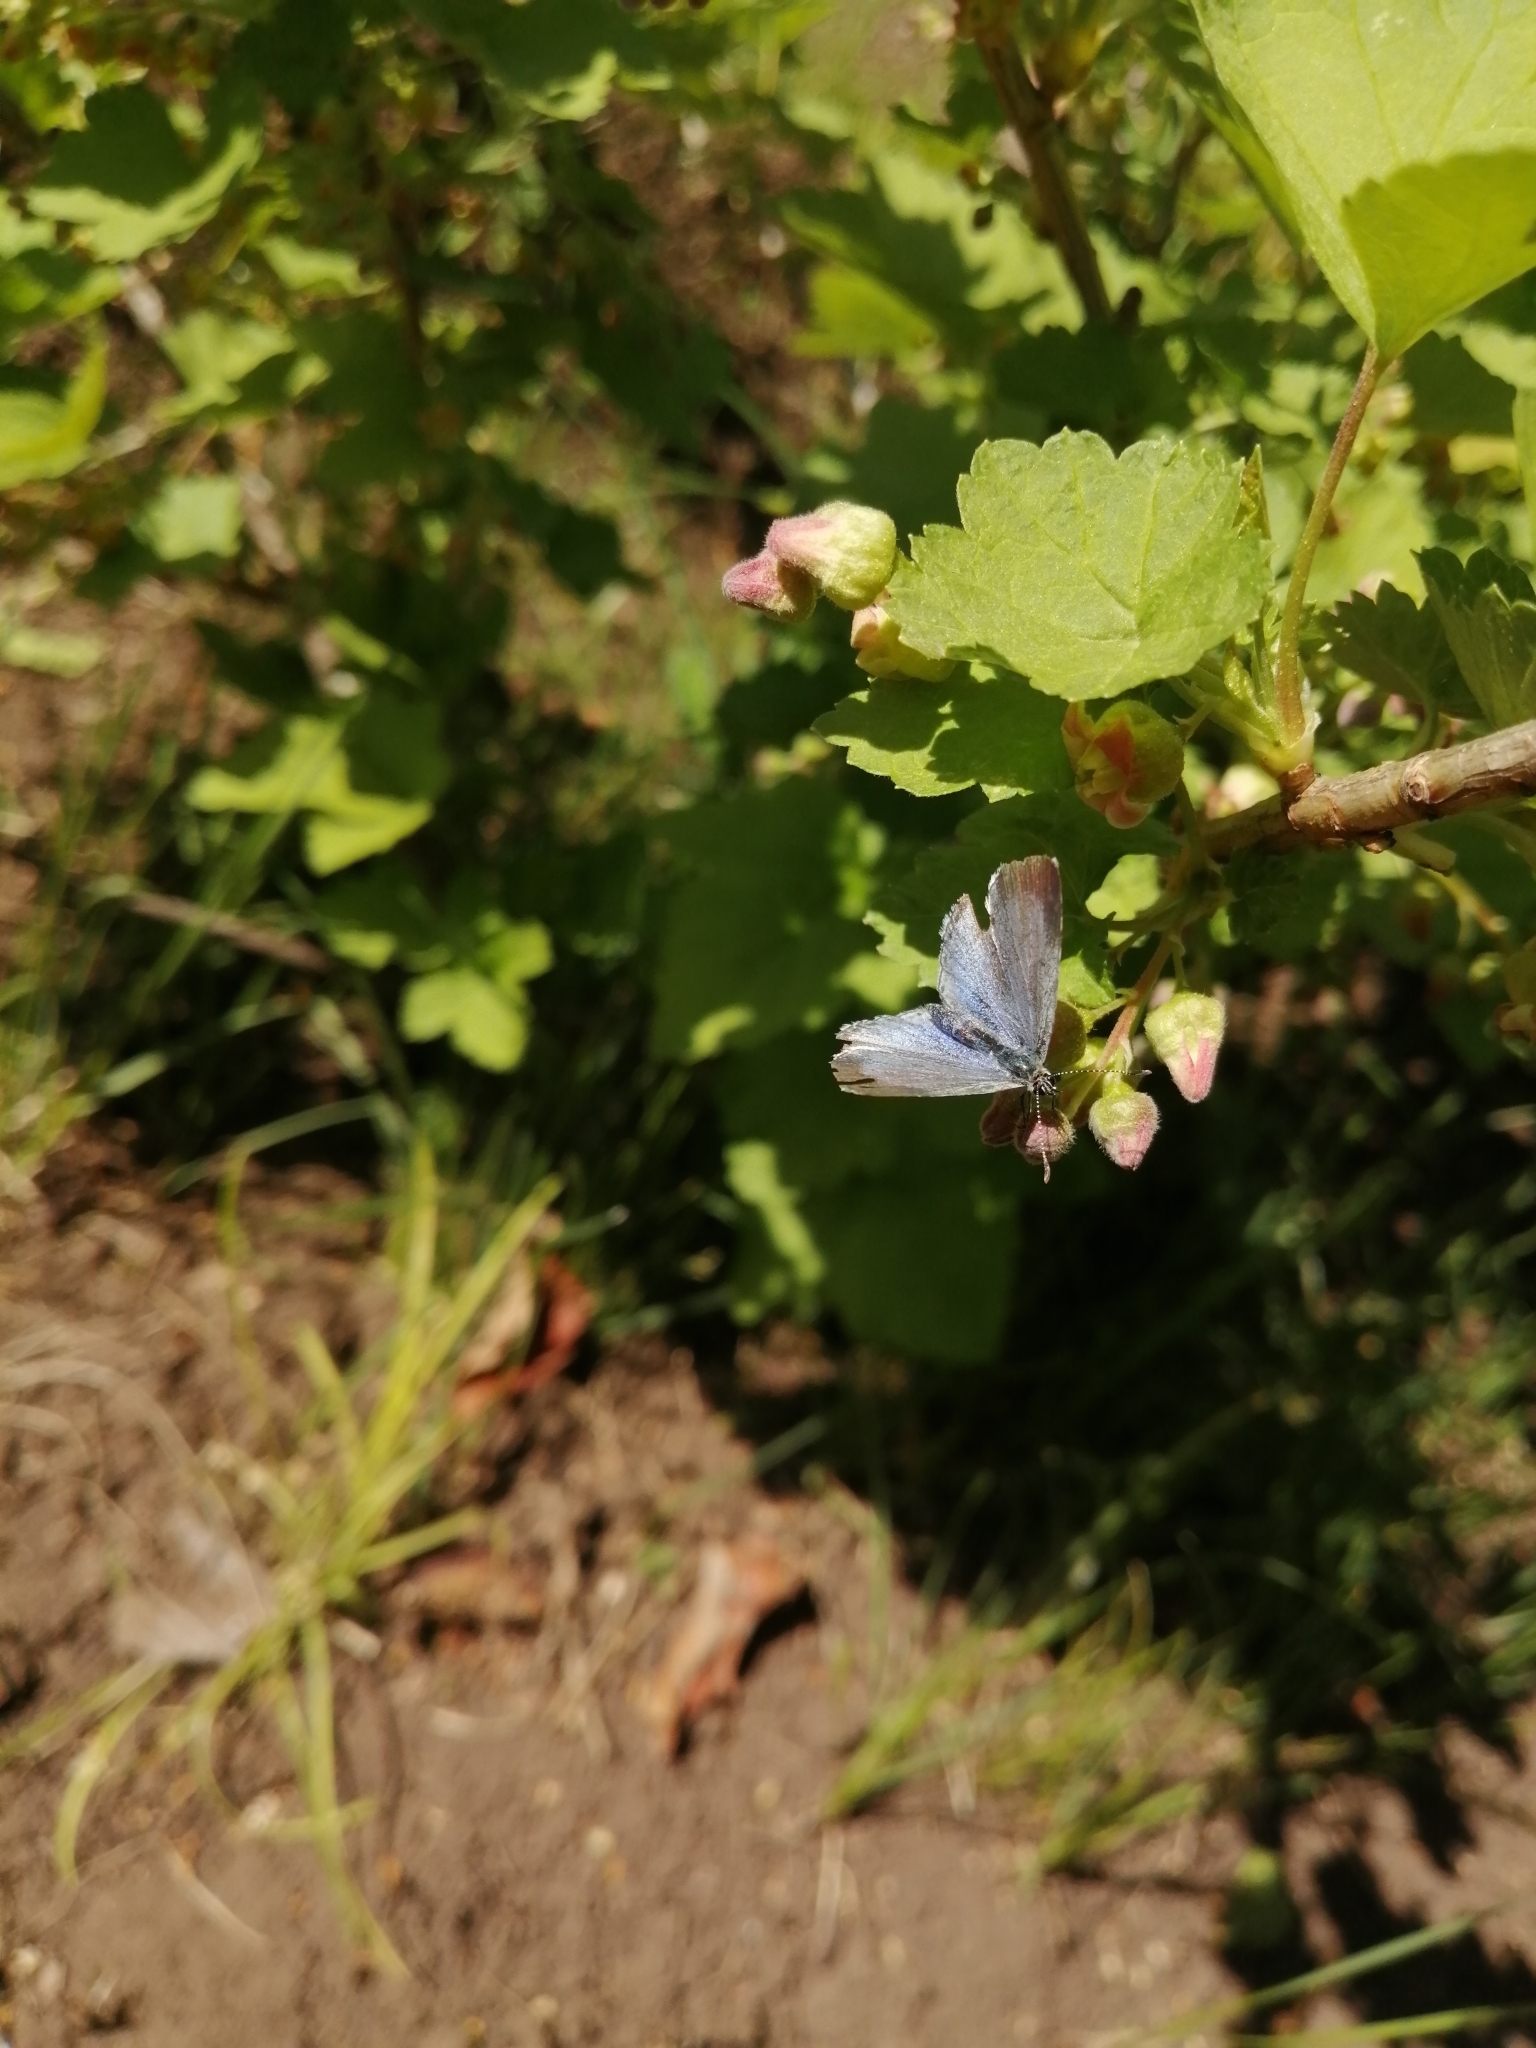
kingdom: Animalia
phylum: Arthropoda
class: Insecta
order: Lepidoptera
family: Lycaenidae
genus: Celastrina
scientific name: Celastrina argiolus
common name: Holly blue
